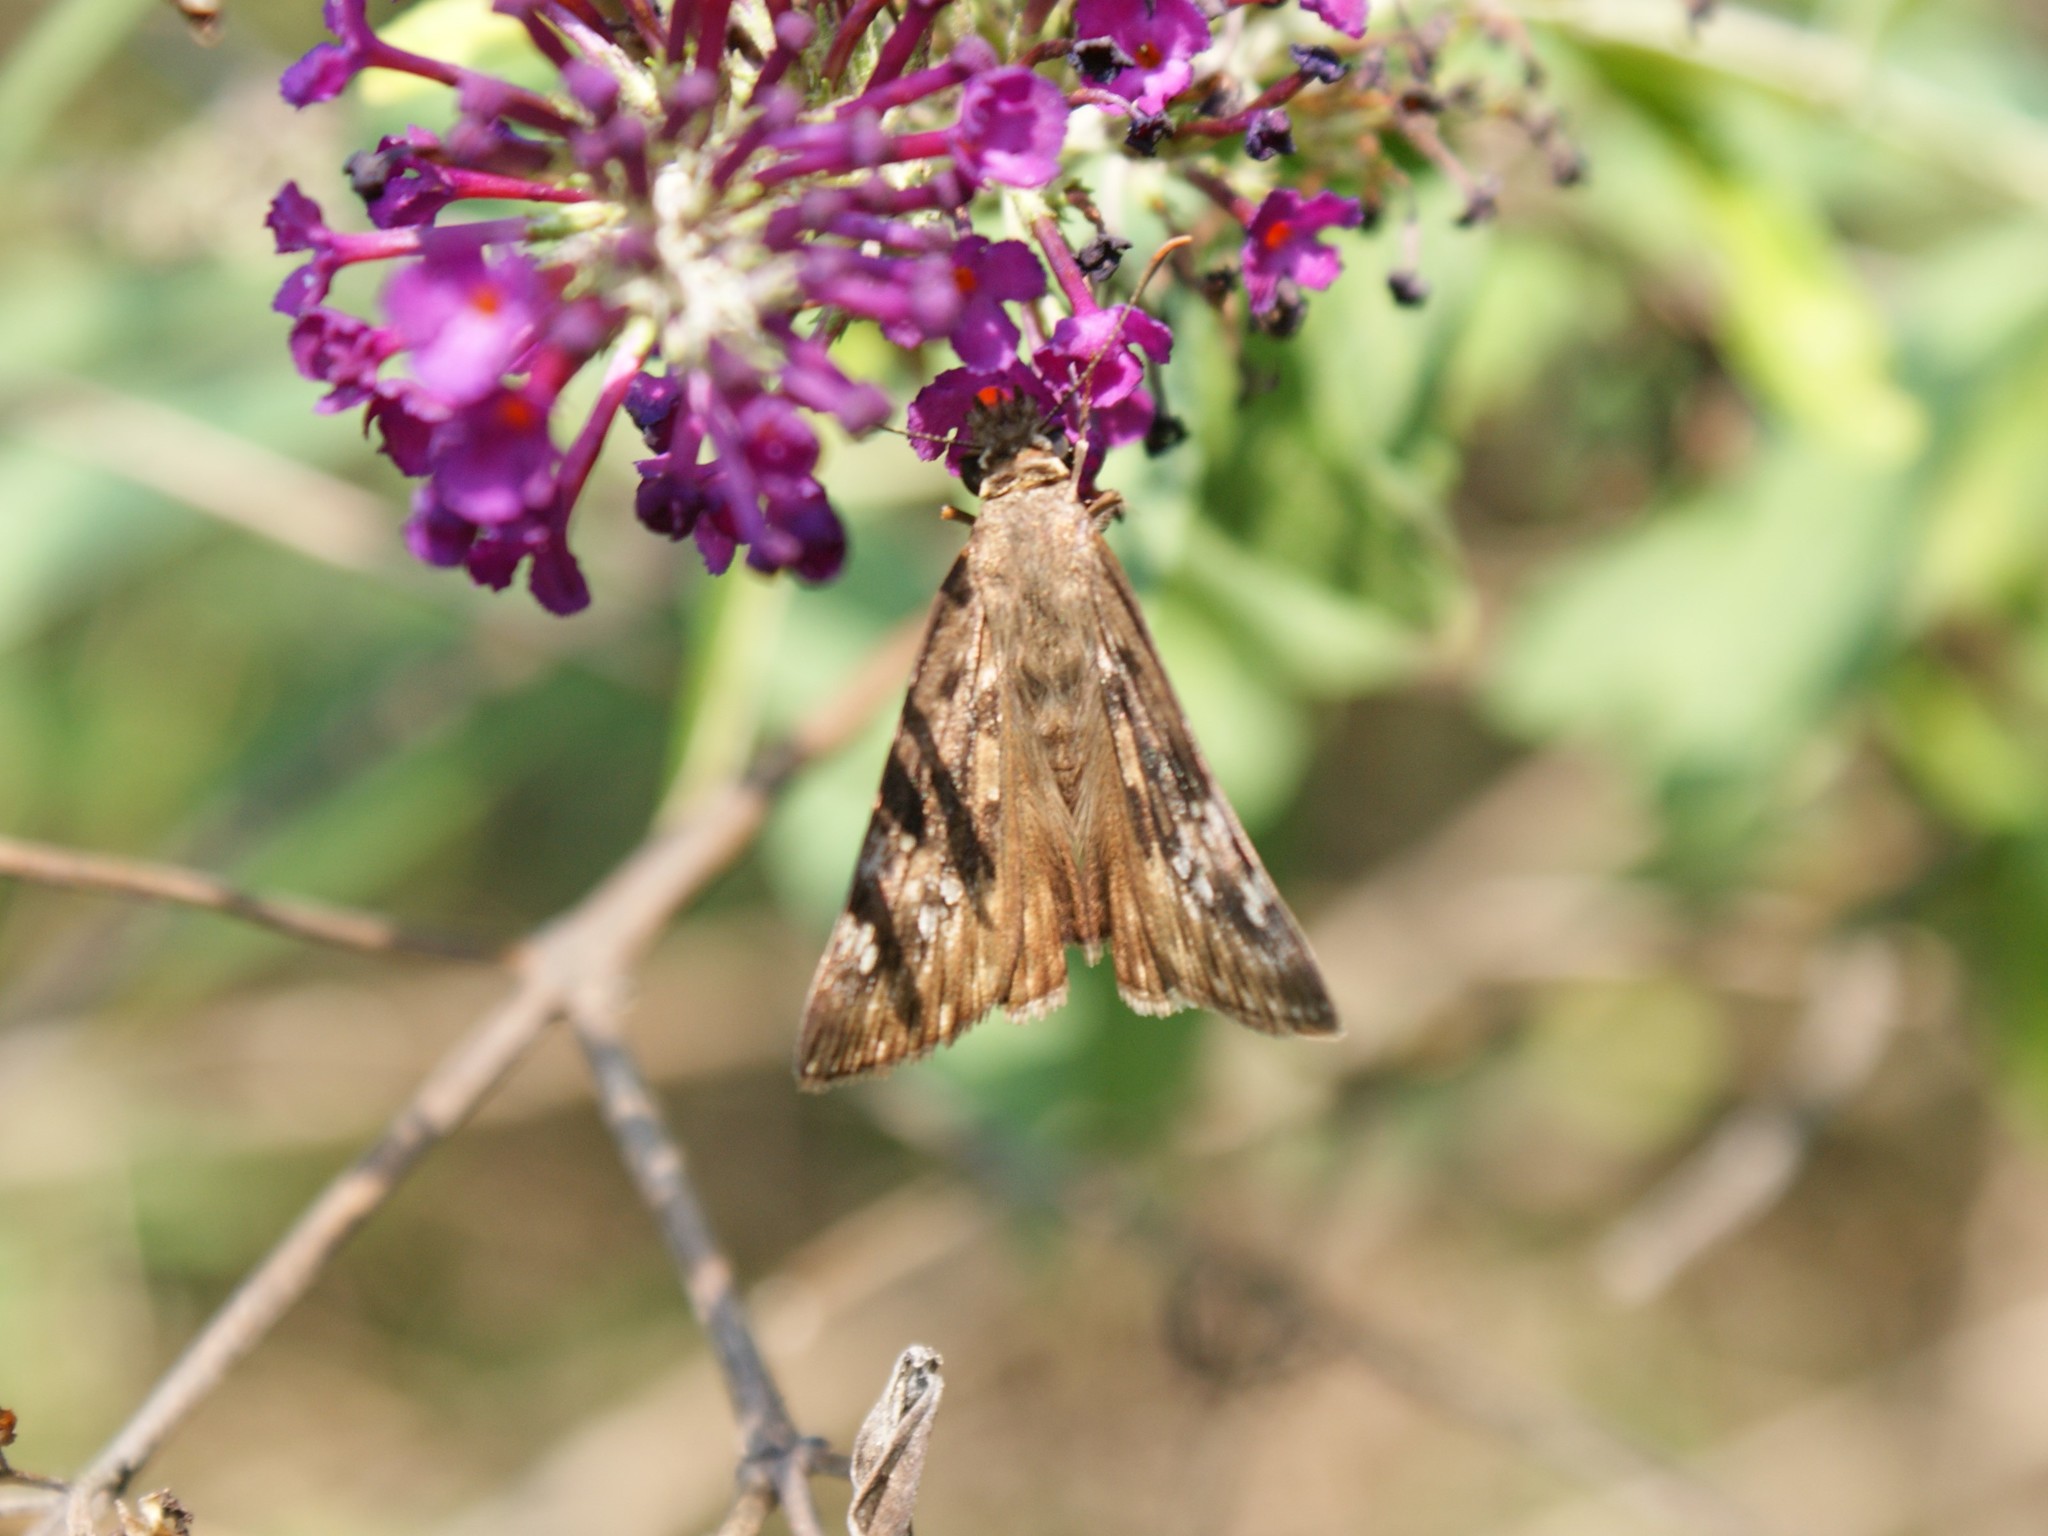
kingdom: Animalia
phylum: Arthropoda
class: Insecta
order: Lepidoptera
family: Hesperiidae
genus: Erynnis
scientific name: Erynnis horatius
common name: Horace's duskywing
